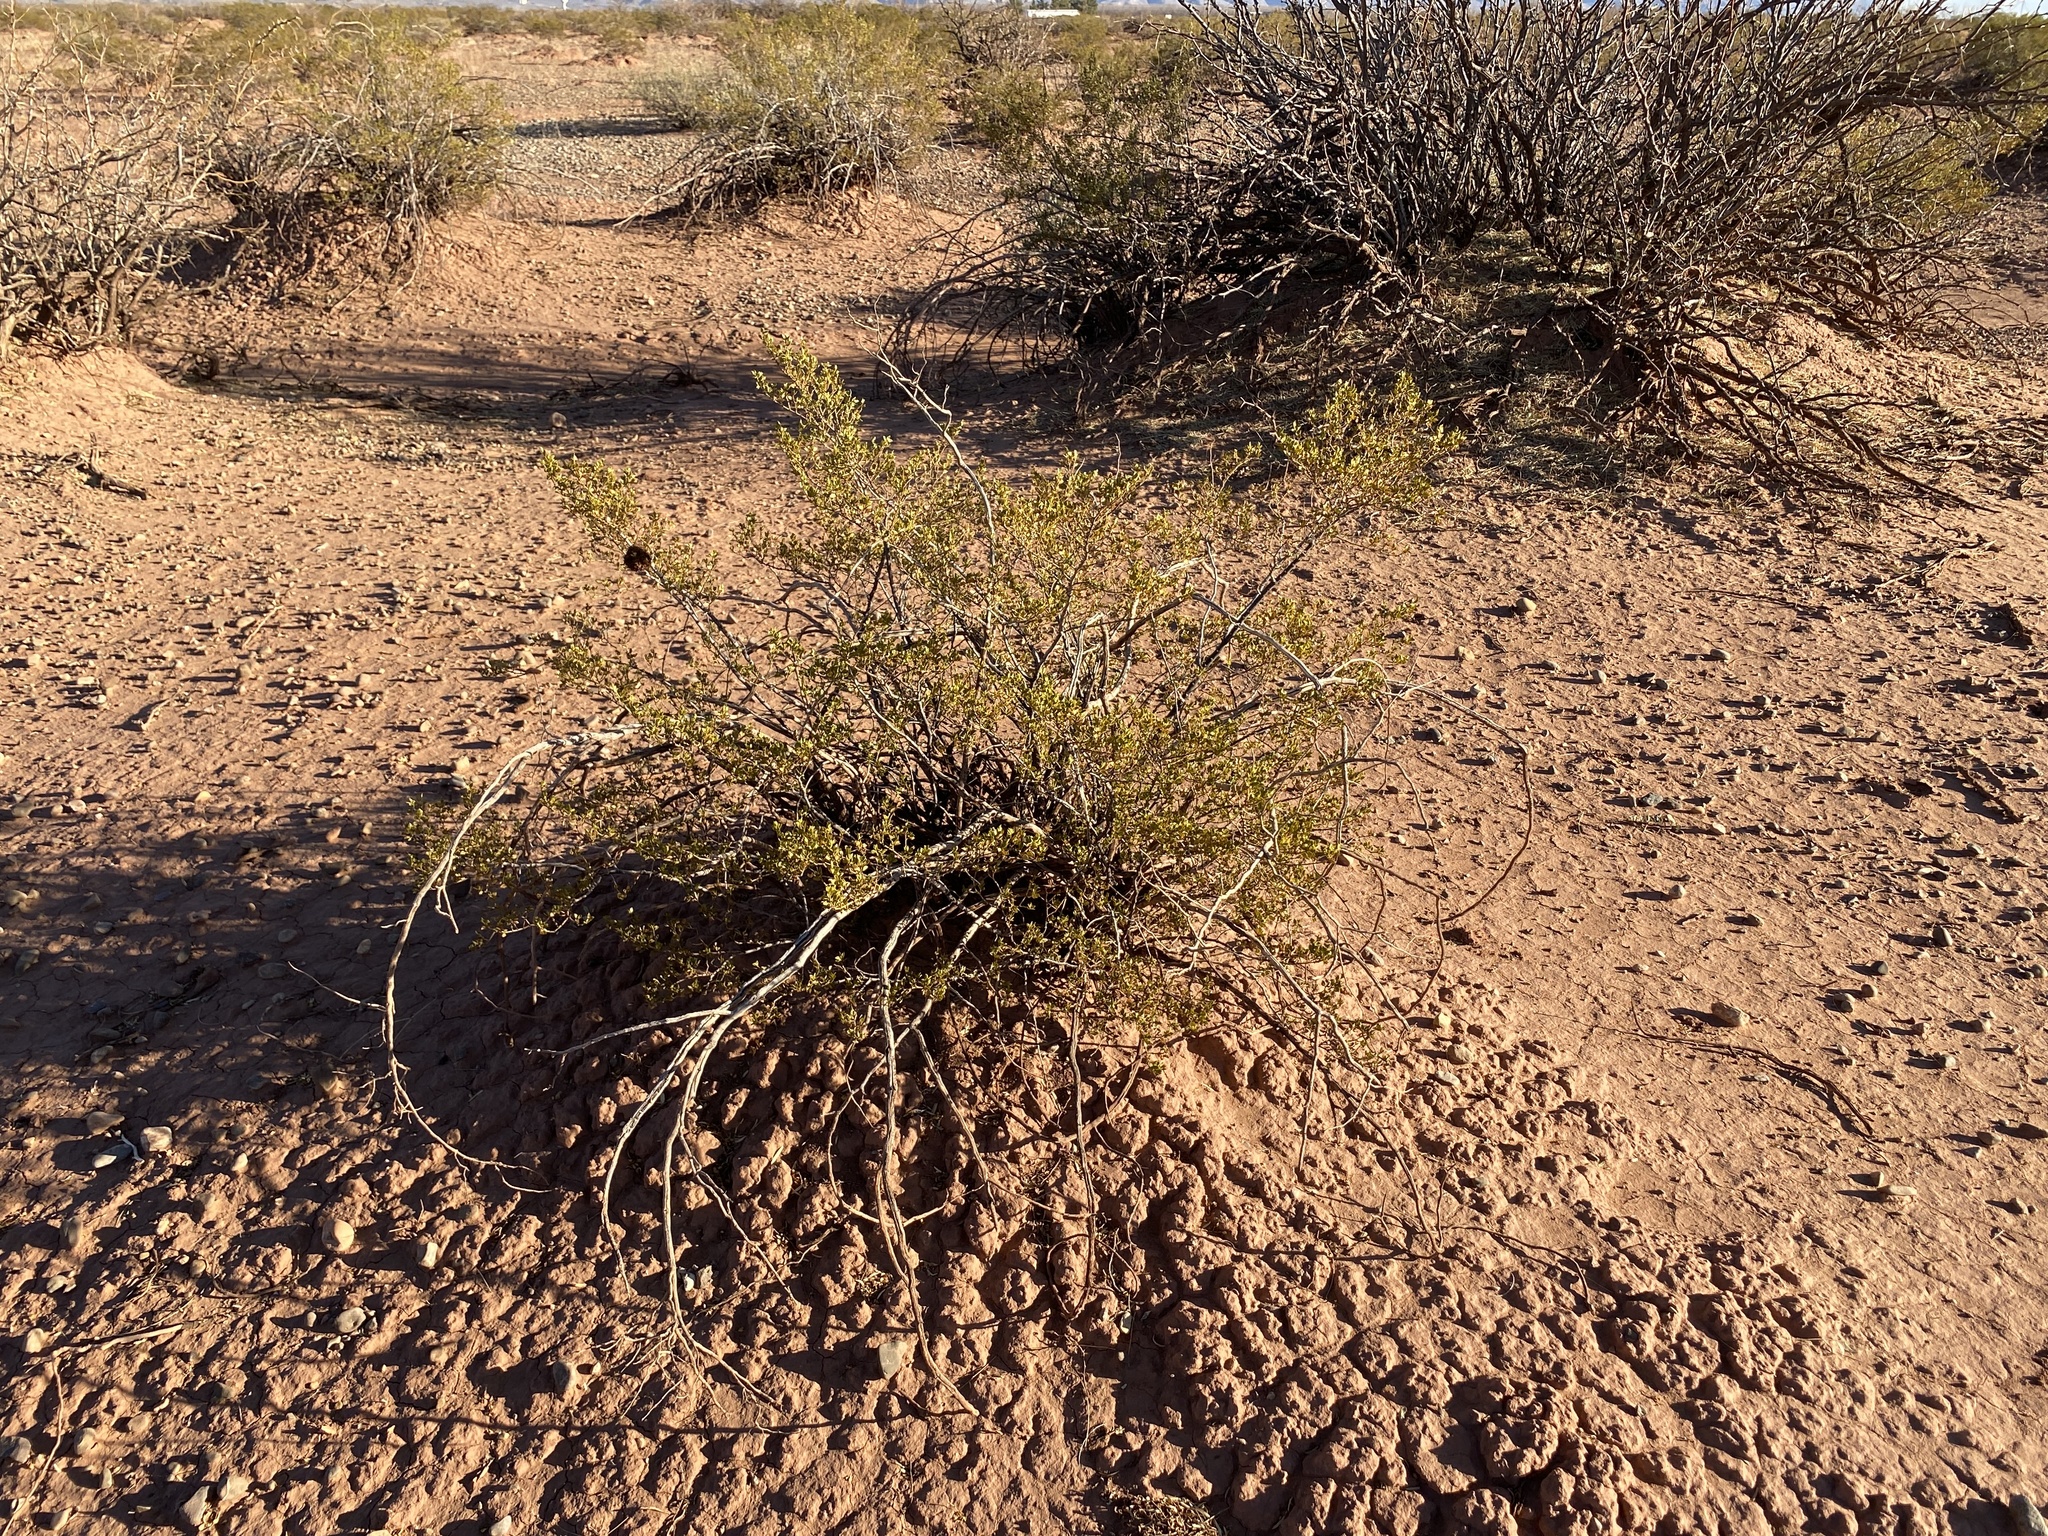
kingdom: Plantae
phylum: Tracheophyta
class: Magnoliopsida
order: Zygophyllales
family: Zygophyllaceae
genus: Larrea
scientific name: Larrea tridentata
